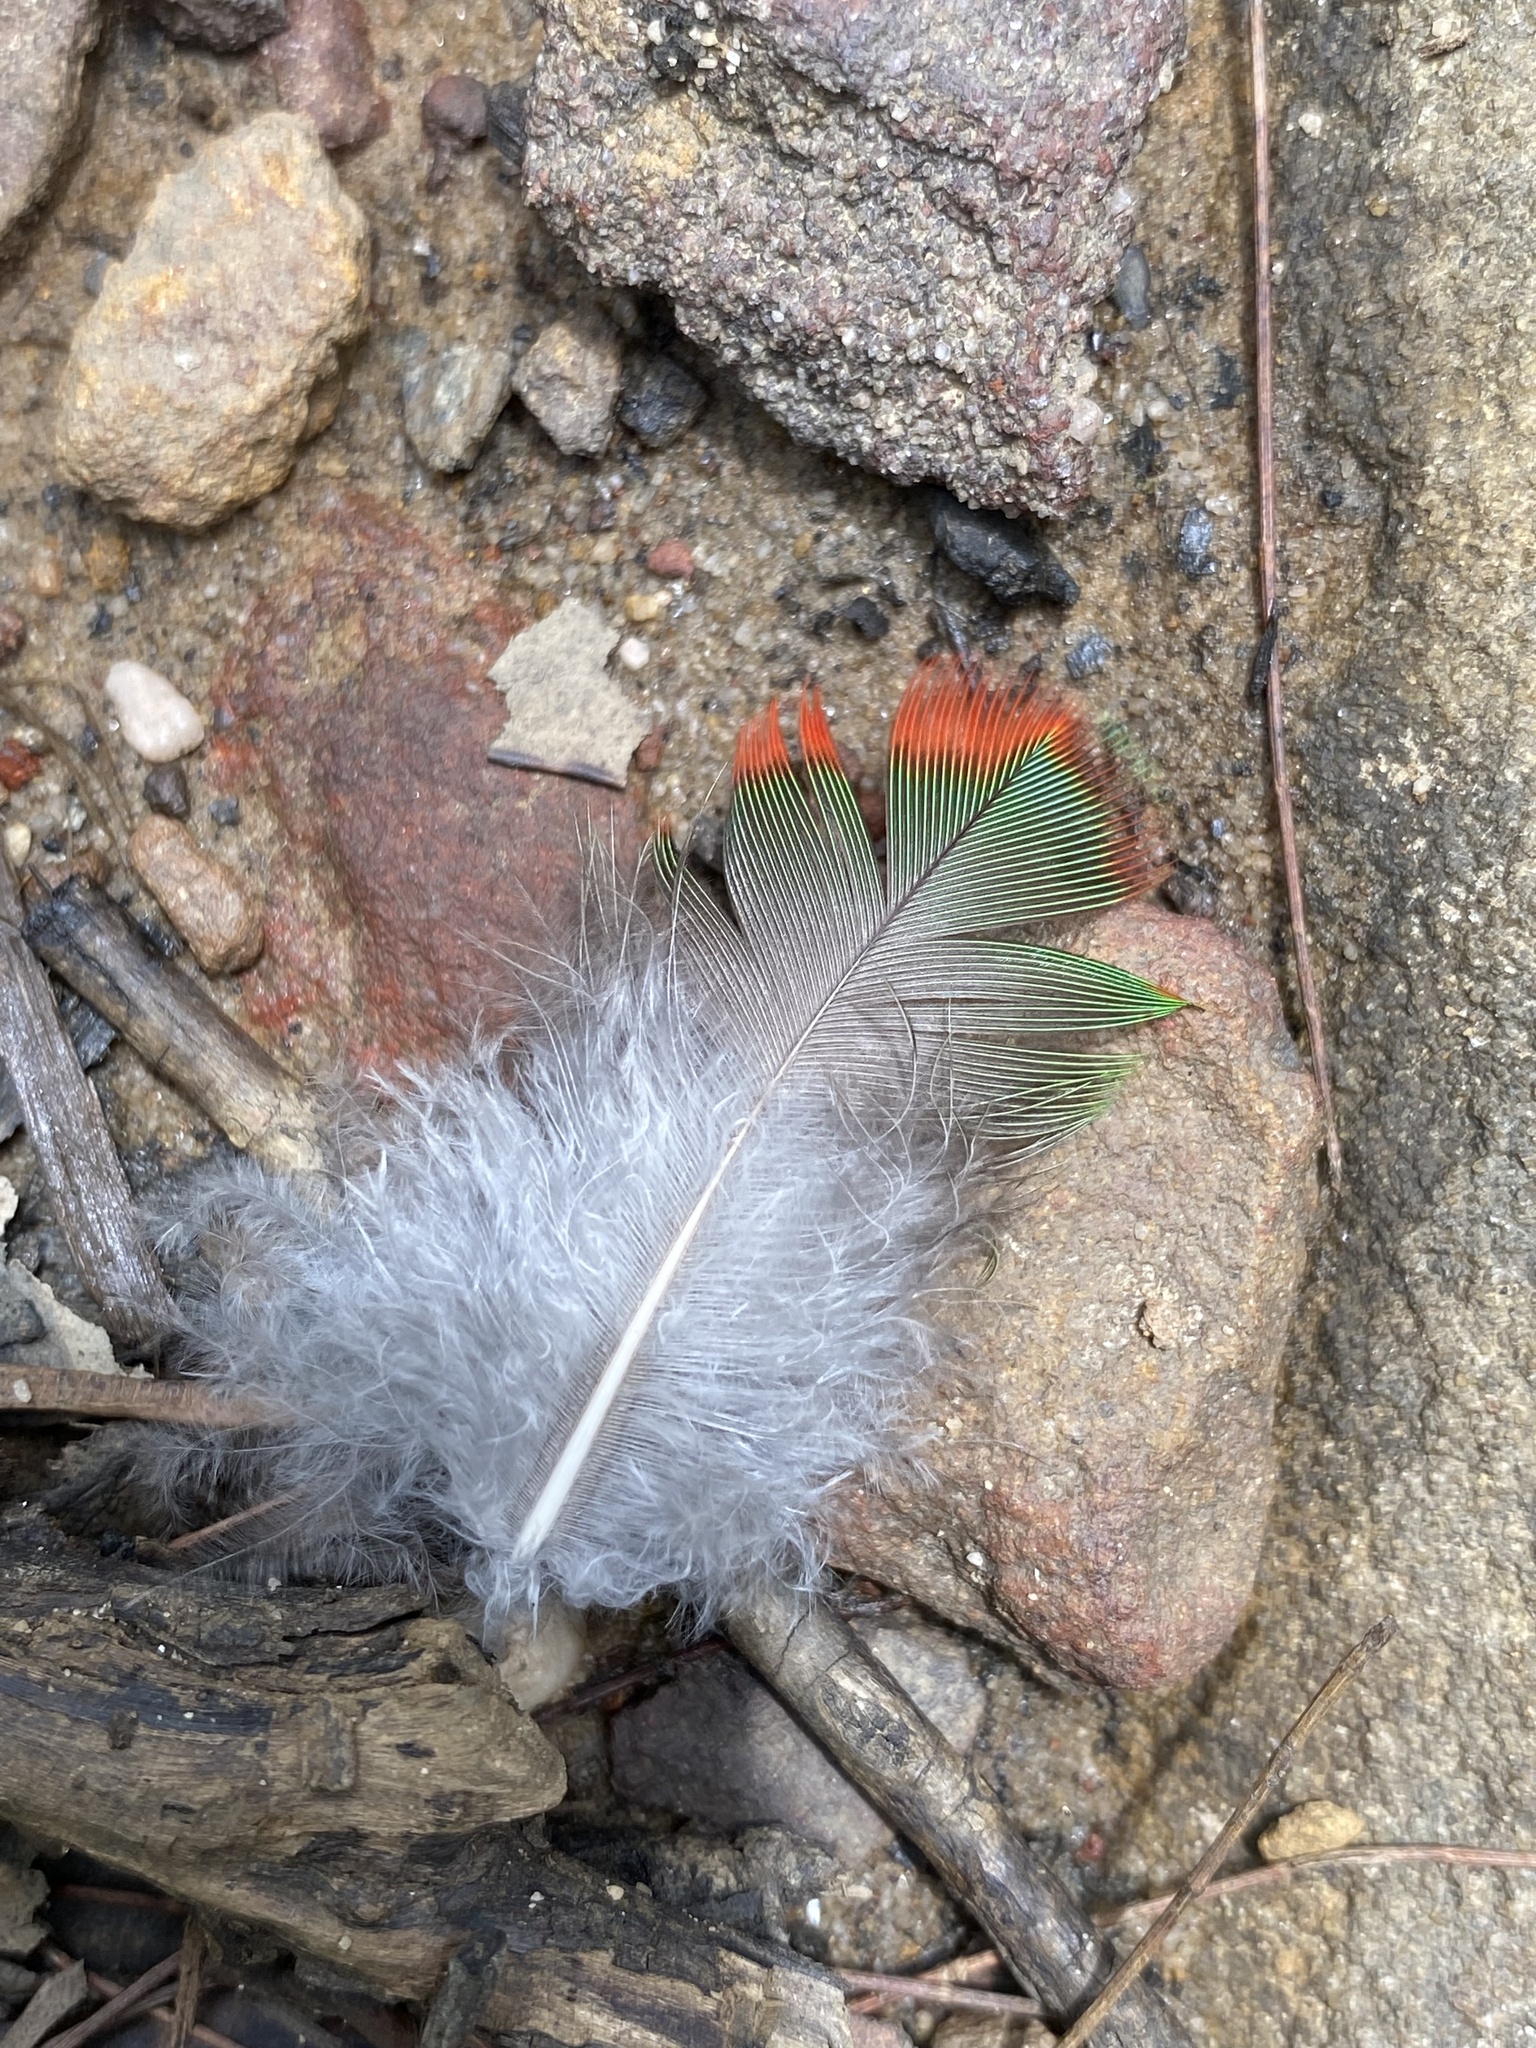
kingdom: Animalia
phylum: Chordata
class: Aves
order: Psittaciformes
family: Psittacidae
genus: Alisterus
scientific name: Alisterus scapularis
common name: Australian king parrot
